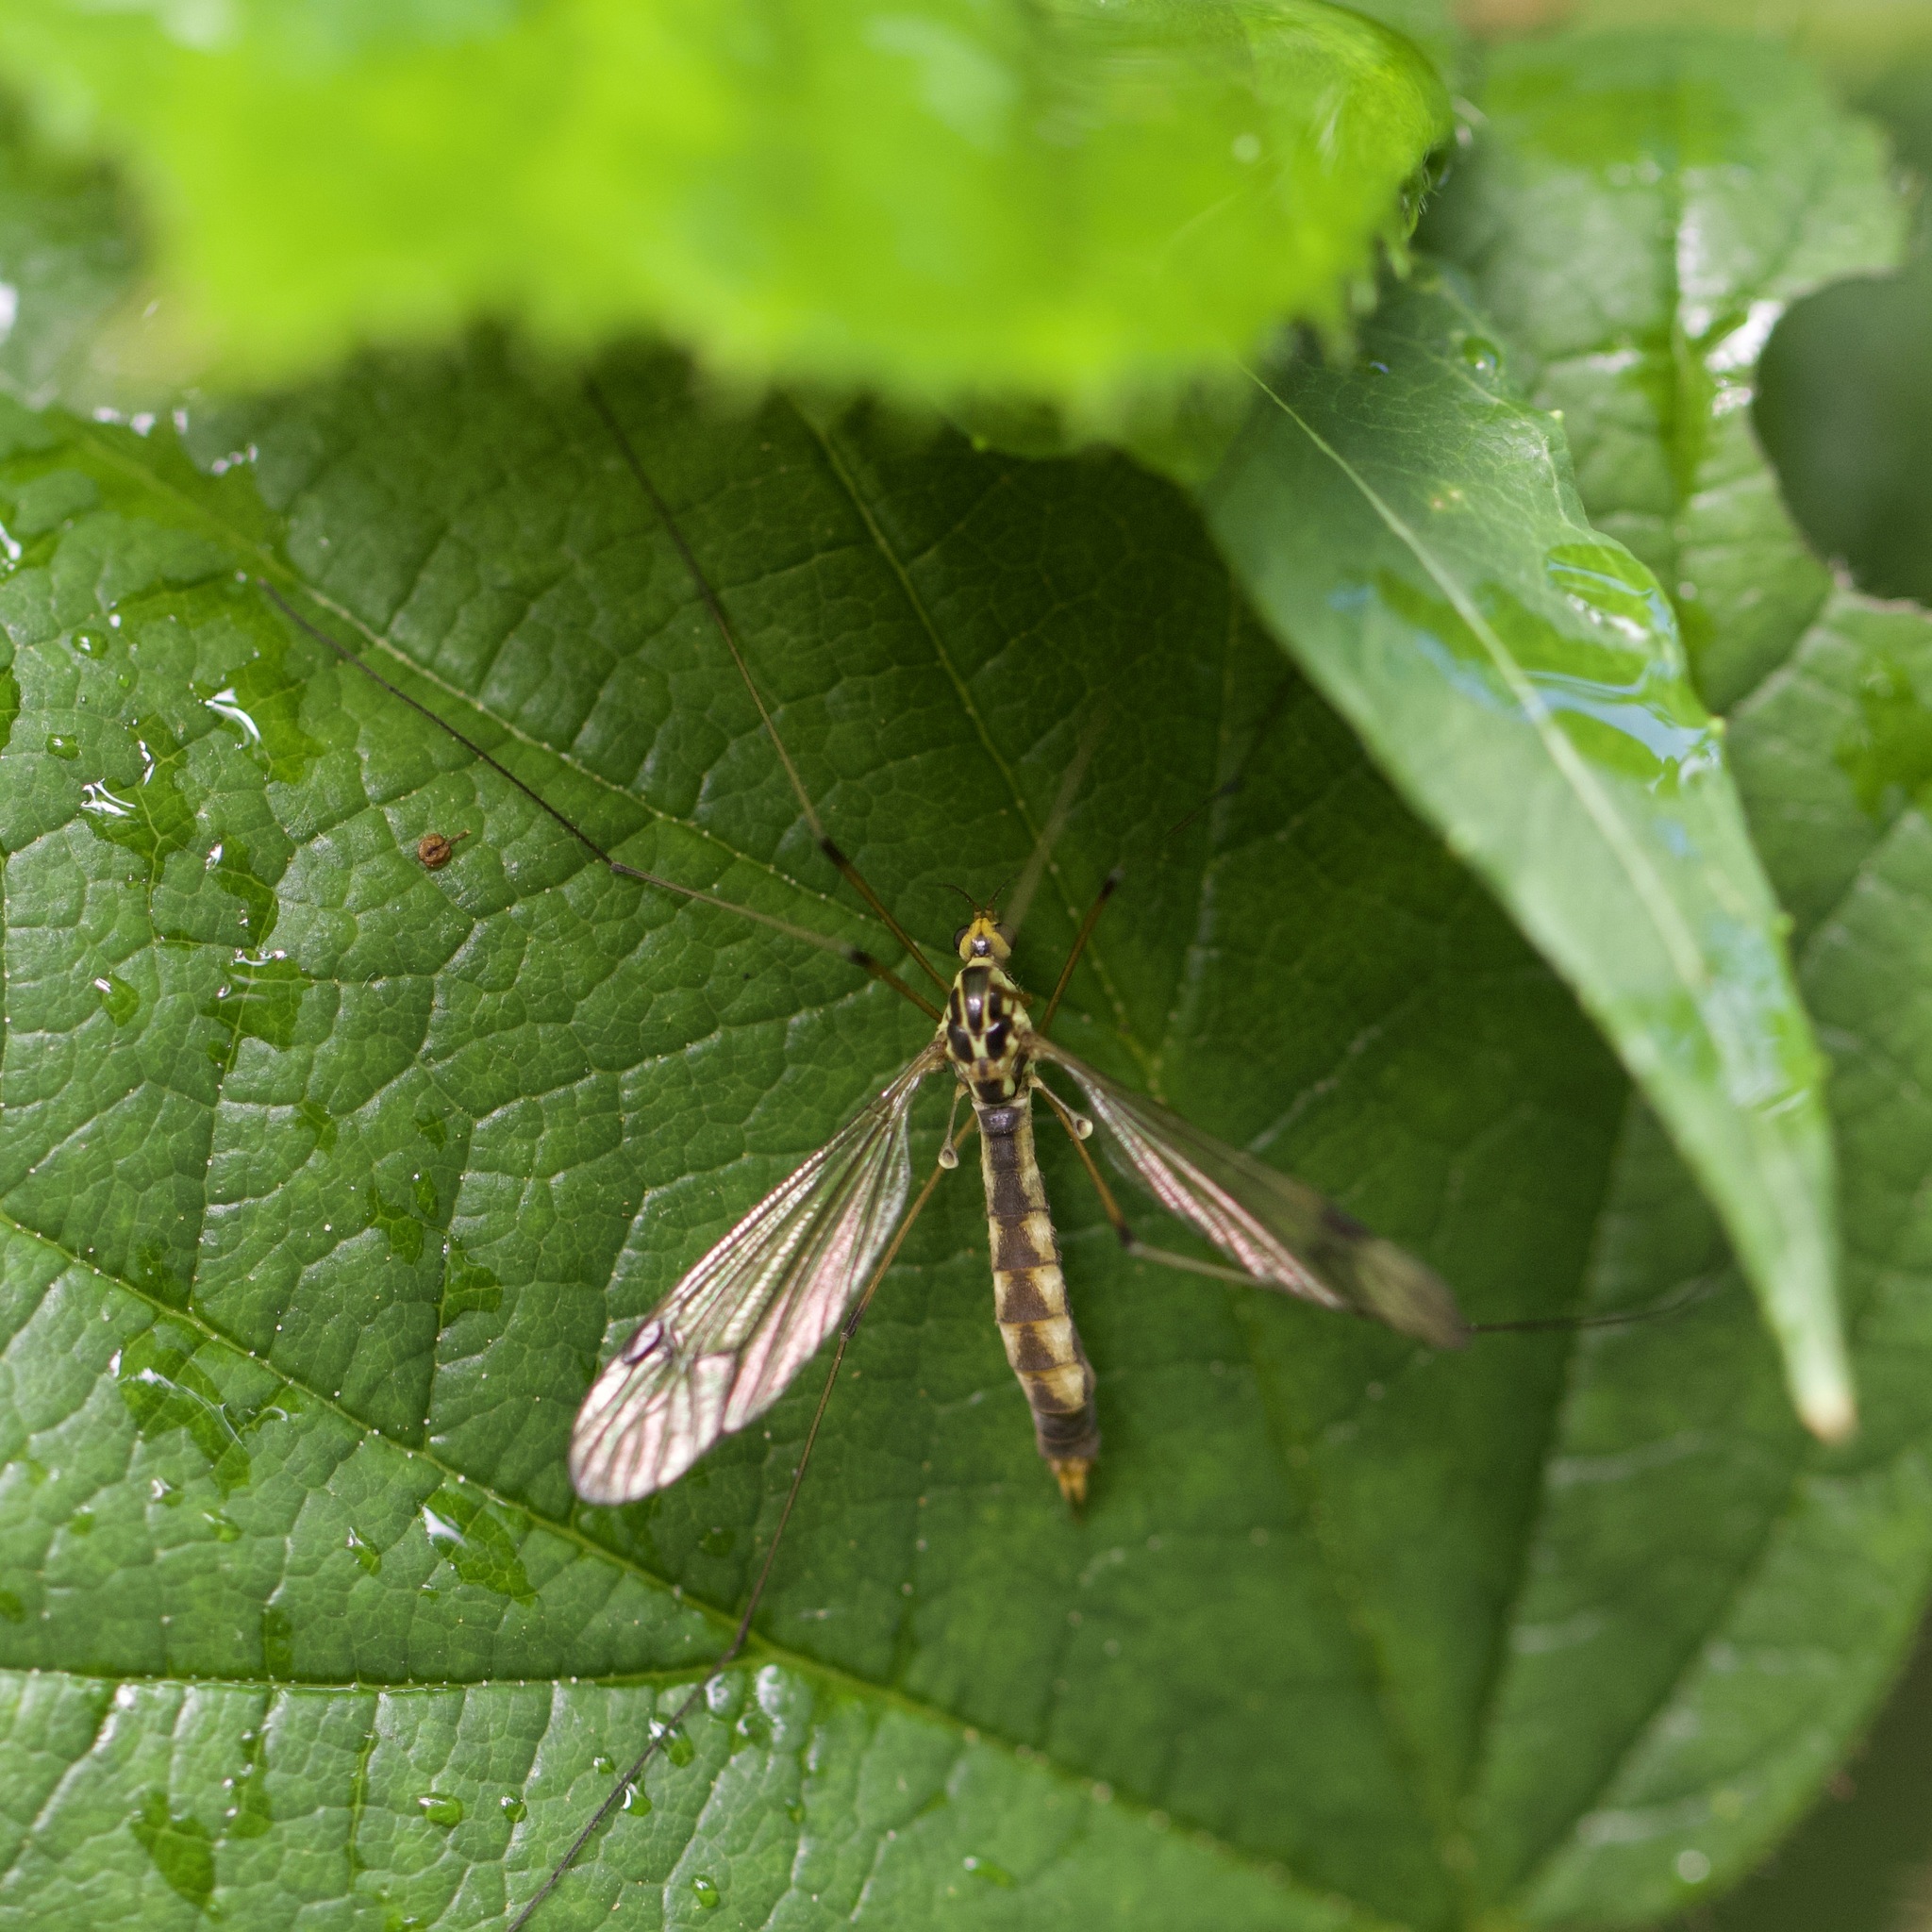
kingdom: Animalia
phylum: Arthropoda
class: Insecta
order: Diptera
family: Tipulidae
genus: Nephrotoma
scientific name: Nephrotoma quadrifaria
